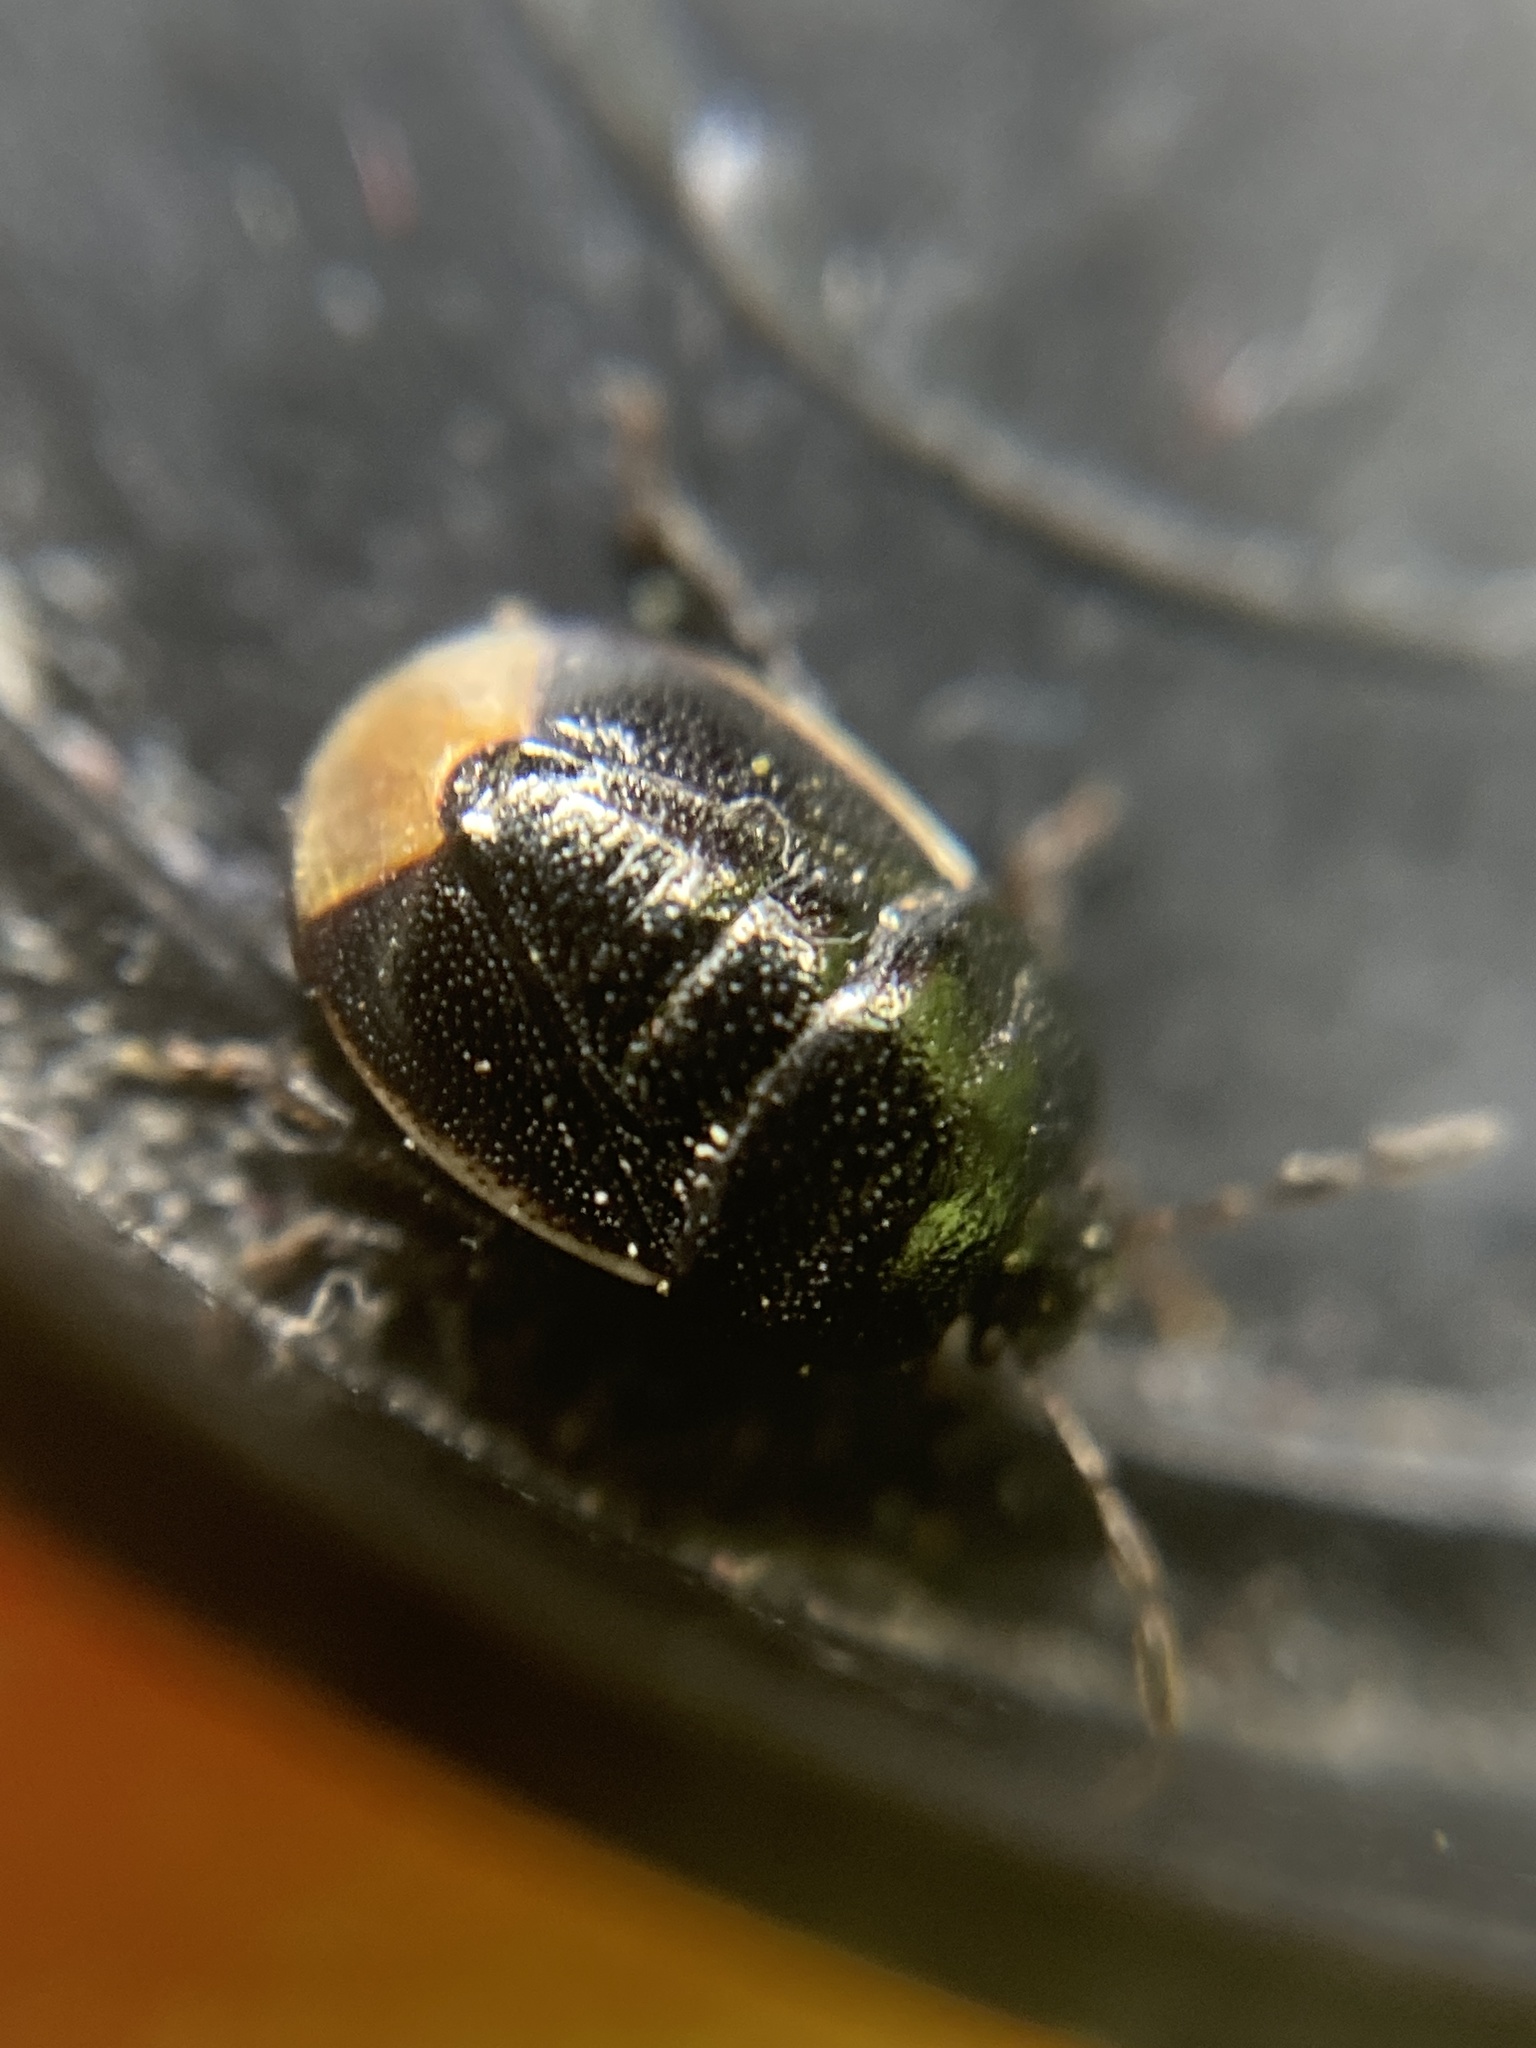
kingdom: Animalia
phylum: Arthropoda
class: Insecta
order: Hemiptera
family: Cydnidae
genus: Legnotus
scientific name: Legnotus limbosus
